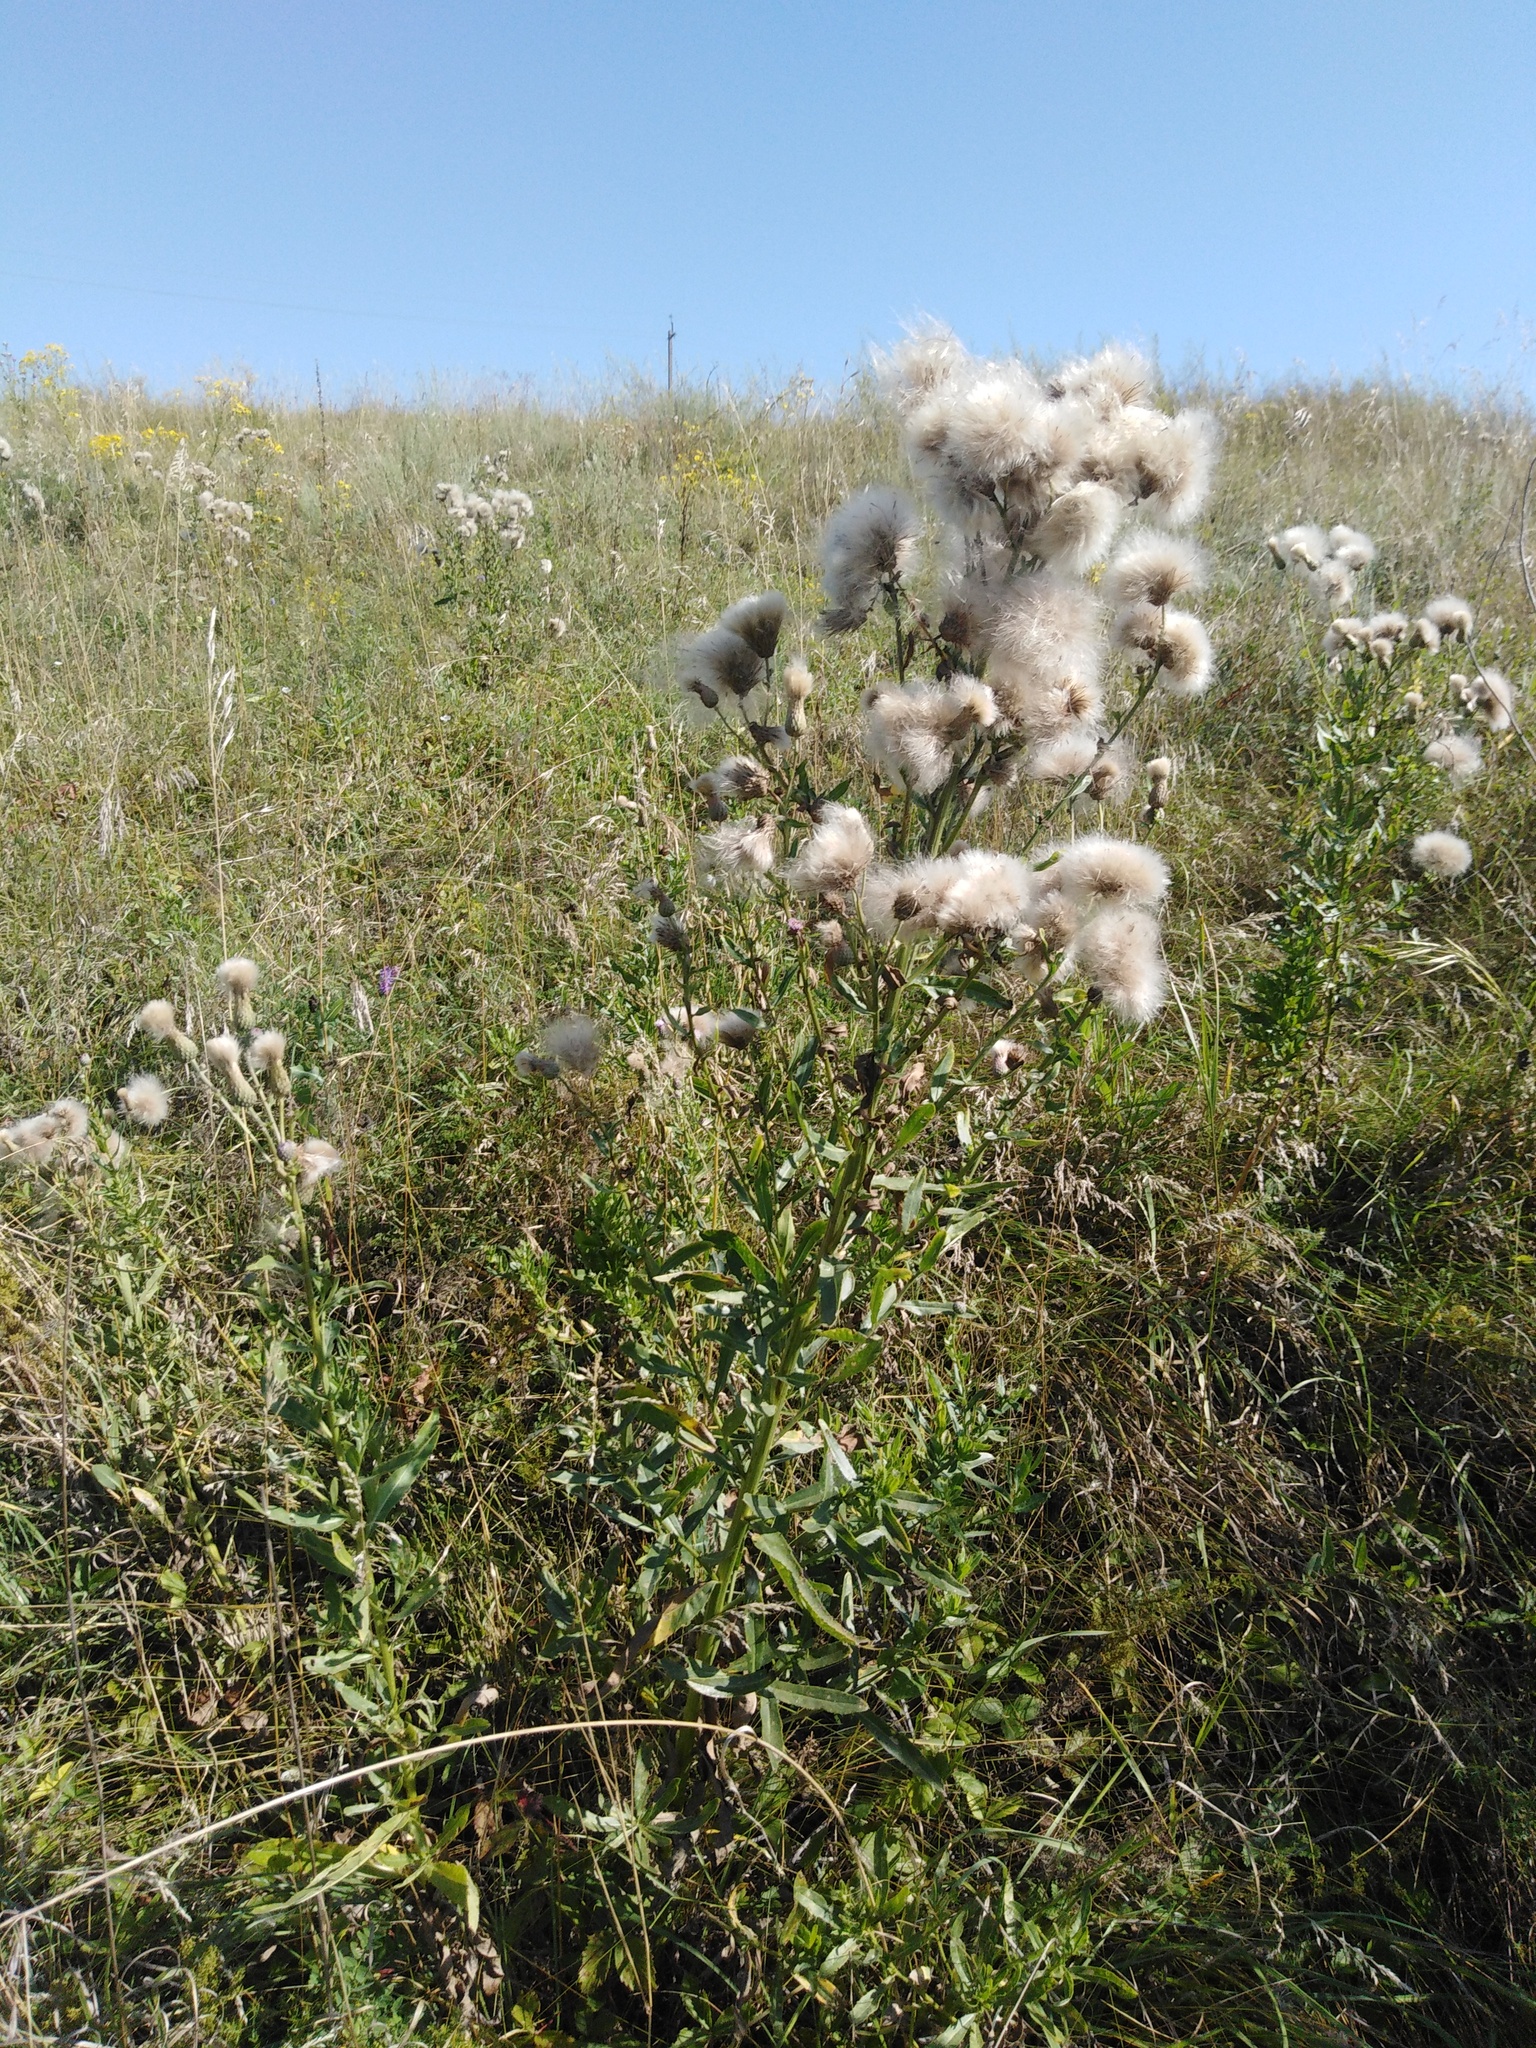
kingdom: Plantae
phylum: Tracheophyta
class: Magnoliopsida
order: Asterales
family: Asteraceae
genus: Cirsium
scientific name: Cirsium arvense
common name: Creeping thistle
